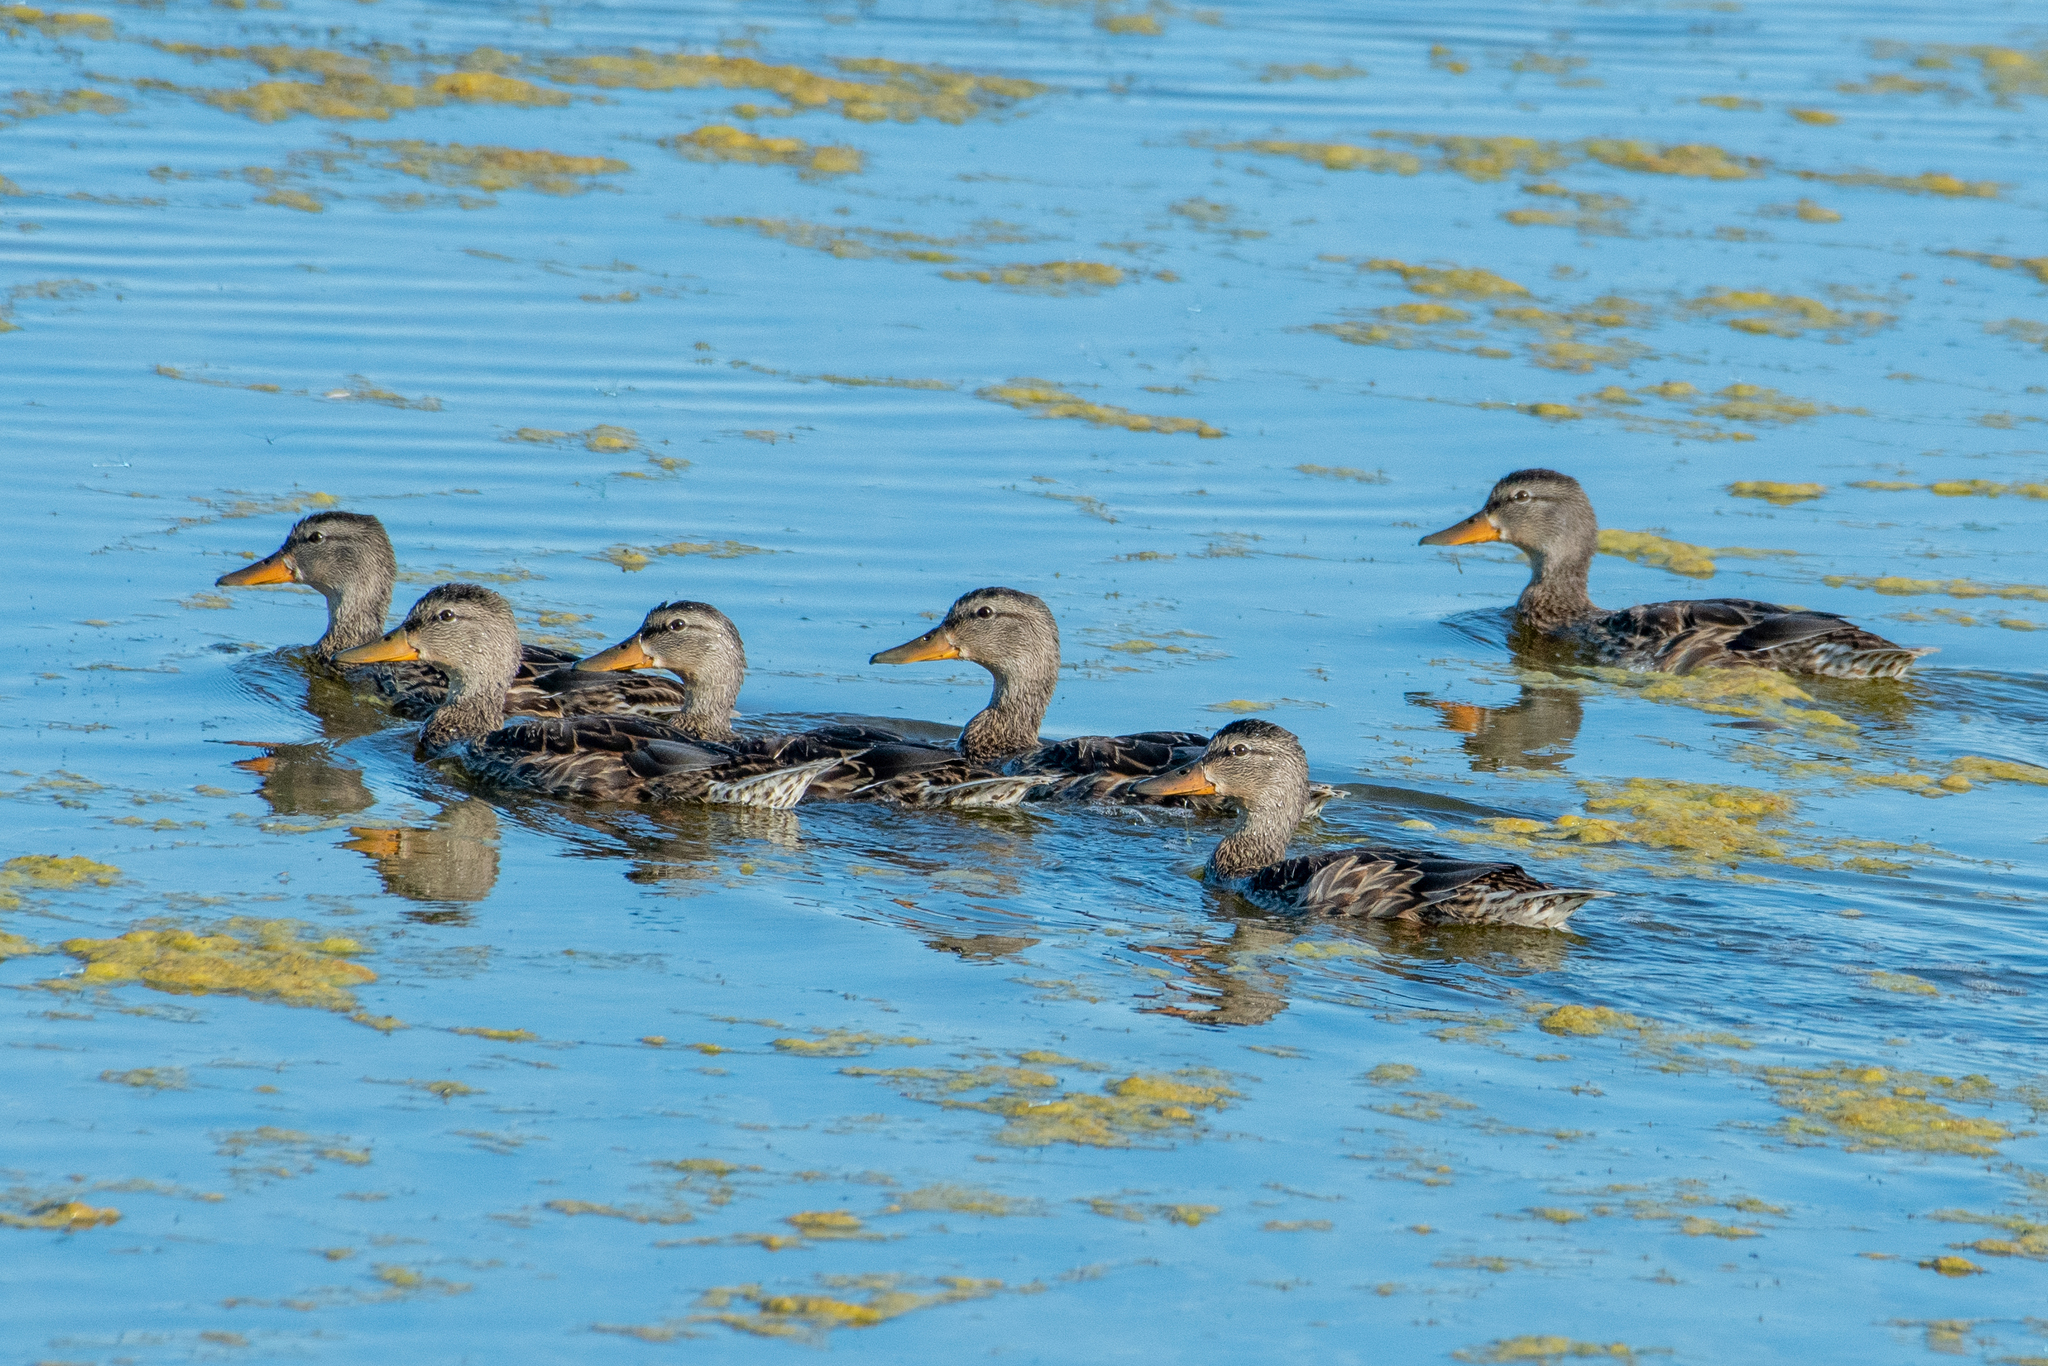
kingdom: Animalia
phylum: Chordata
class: Aves
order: Anseriformes
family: Anatidae
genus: Anas
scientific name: Anas platyrhynchos
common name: Mallard
